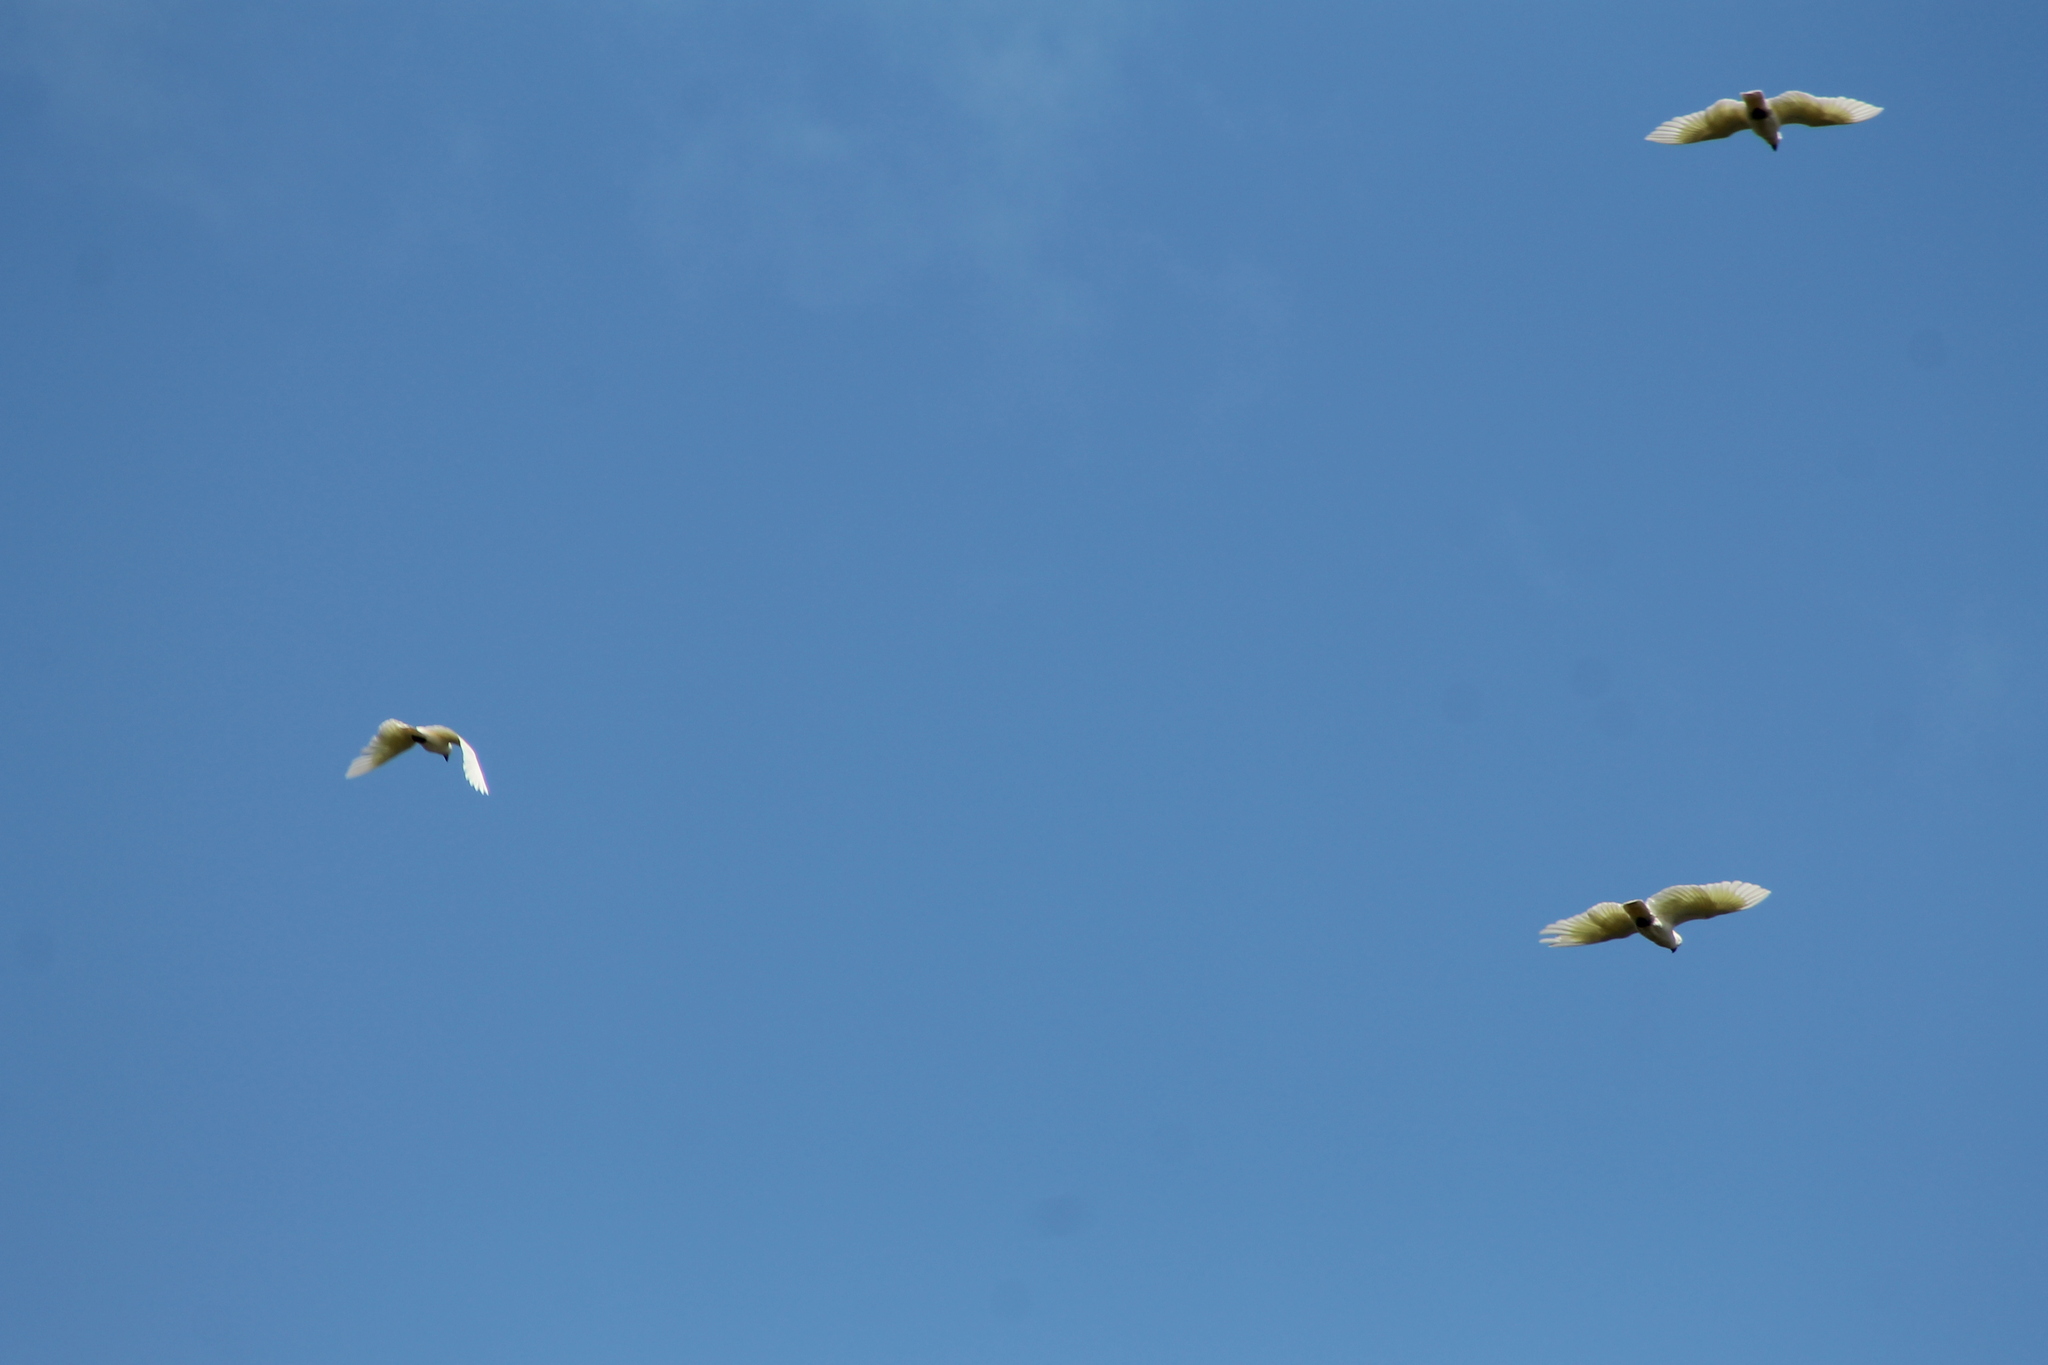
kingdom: Animalia
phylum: Chordata
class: Aves
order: Psittaciformes
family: Psittacidae
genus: Cacatua
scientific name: Cacatua galerita
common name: Sulphur-crested cockatoo
